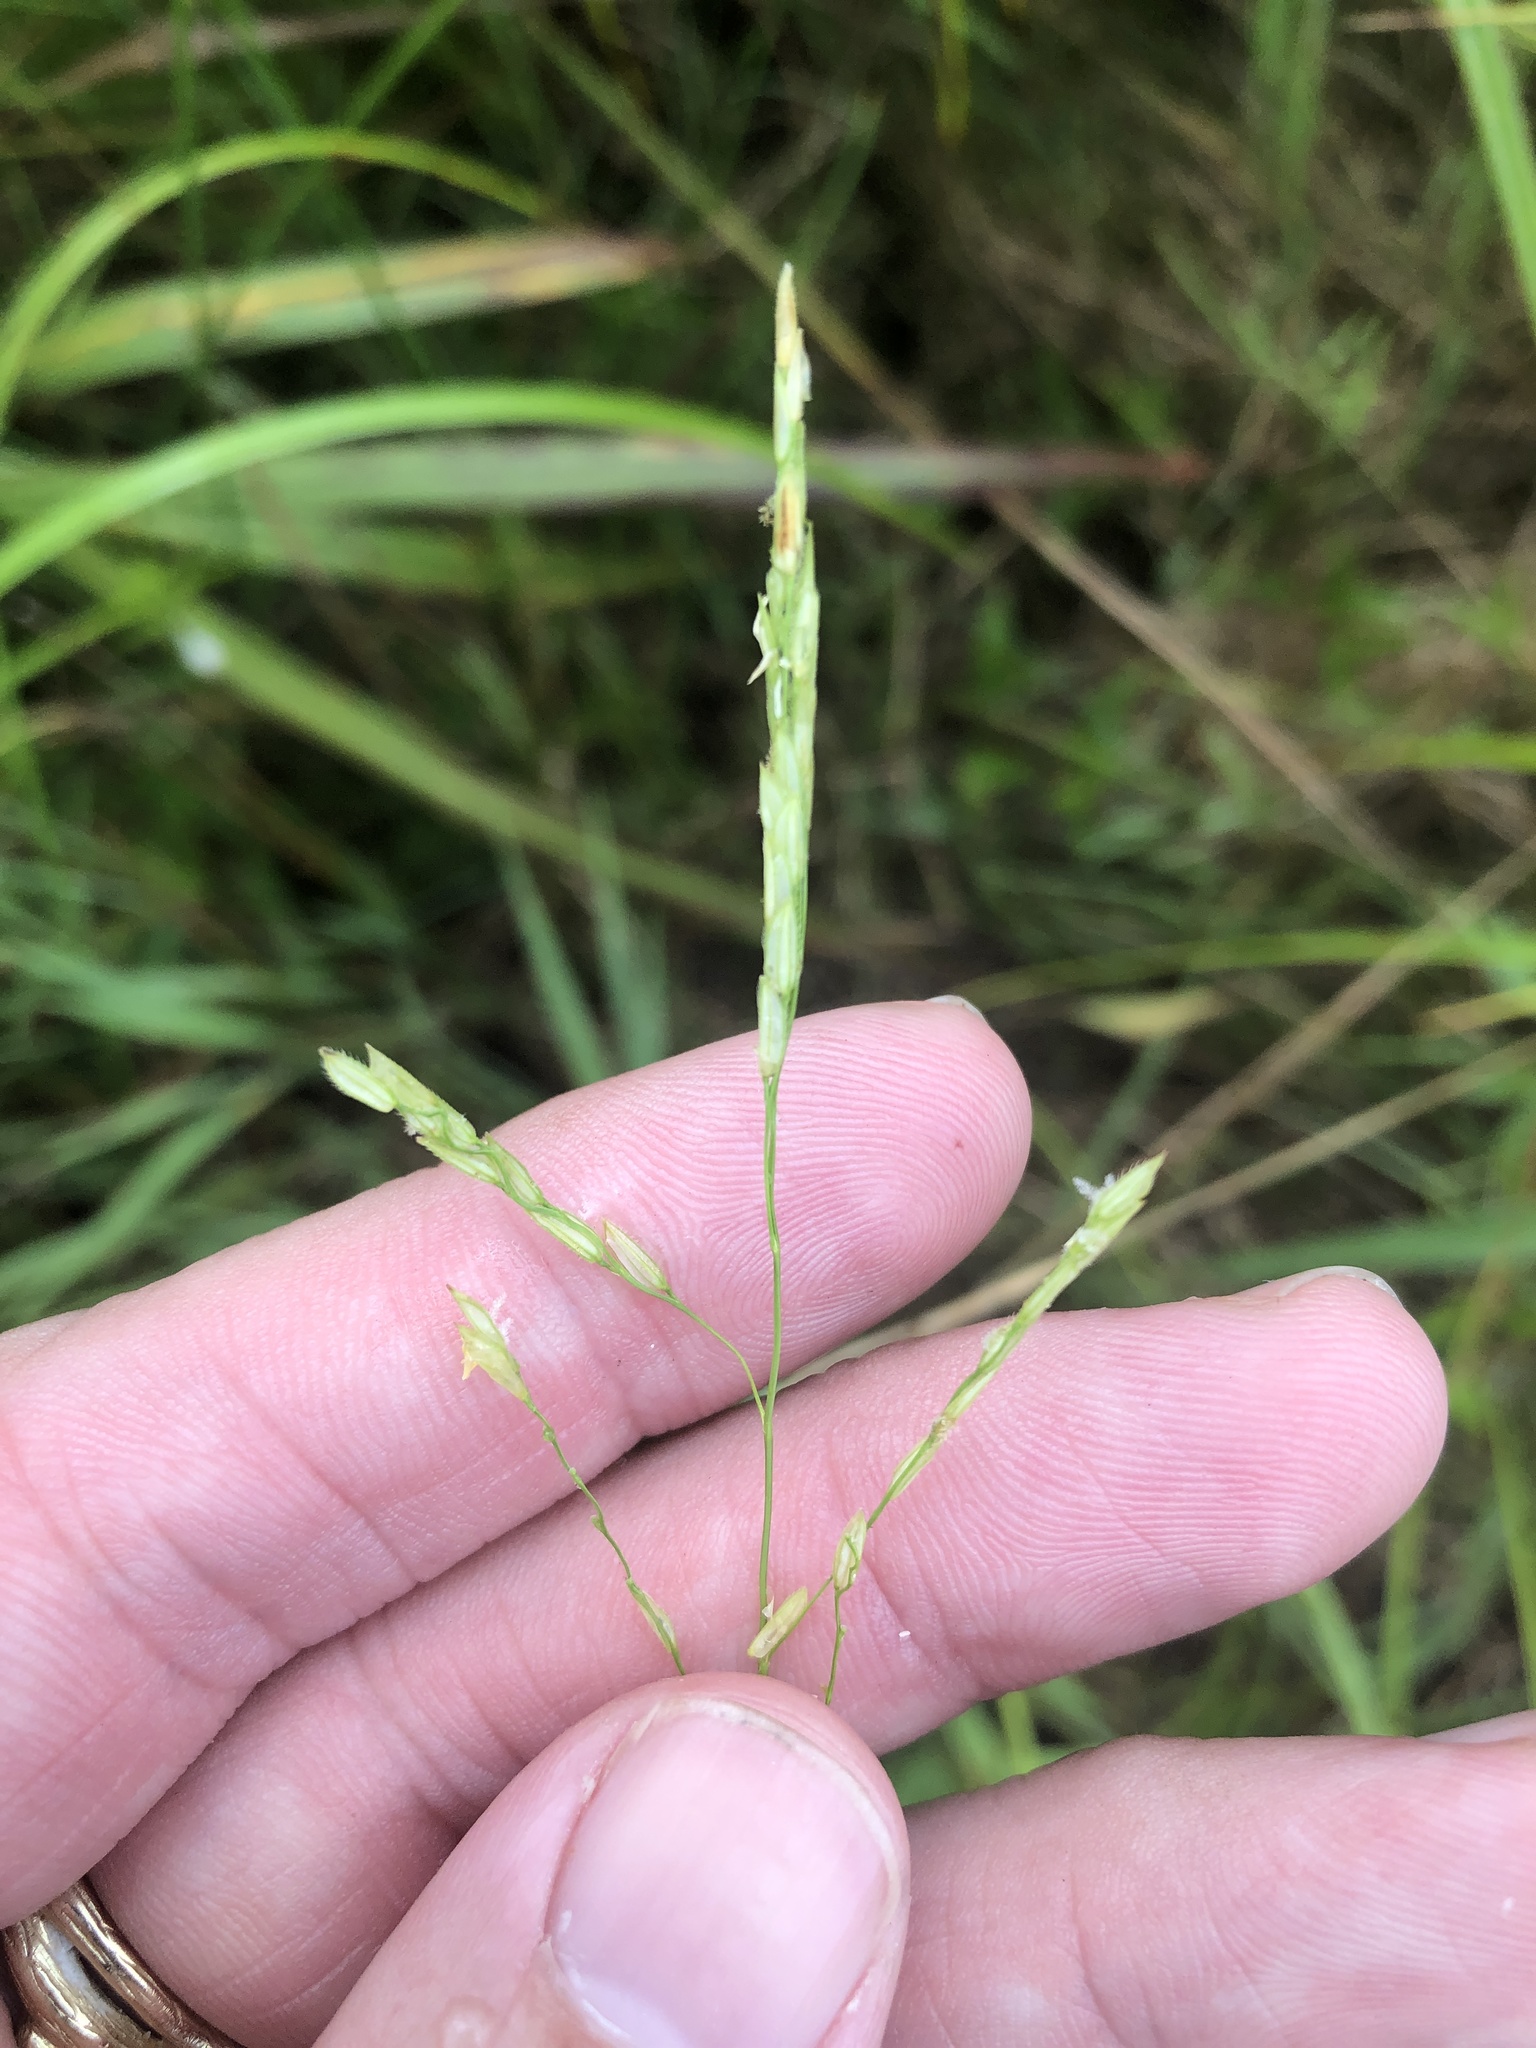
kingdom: Plantae
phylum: Tracheophyta
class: Liliopsida
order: Poales
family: Poaceae
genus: Leersia
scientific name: Leersia hexandra
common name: Southern cut grass
